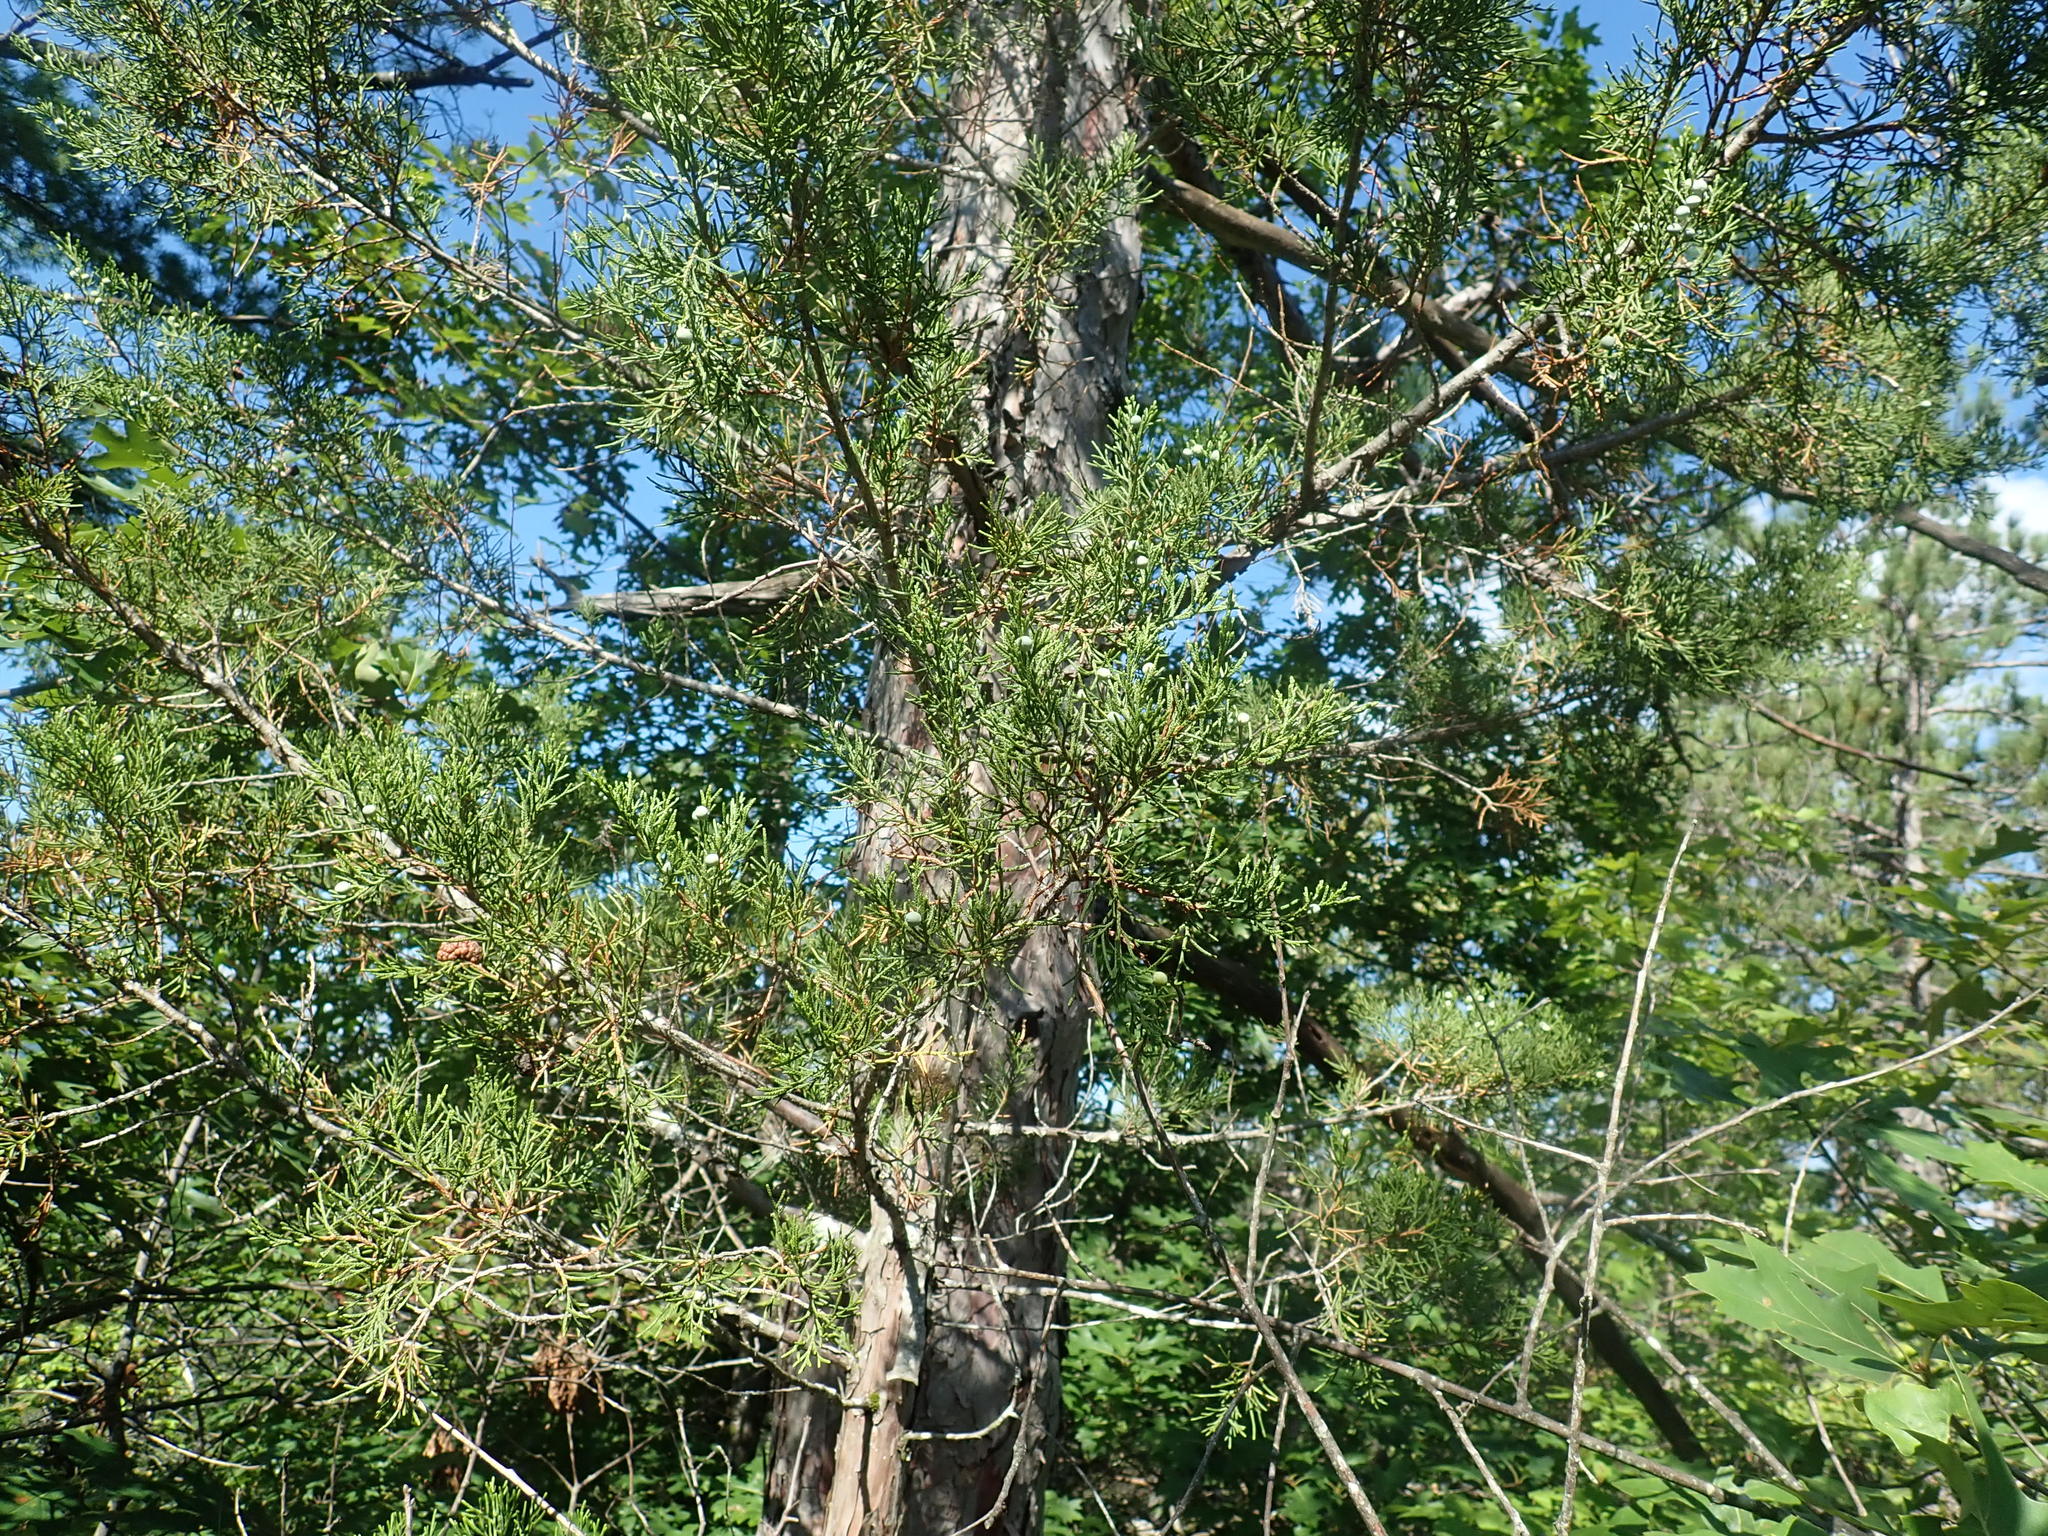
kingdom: Plantae
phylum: Tracheophyta
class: Pinopsida
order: Pinales
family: Cupressaceae
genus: Juniperus
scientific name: Juniperus virginiana
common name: Red juniper
